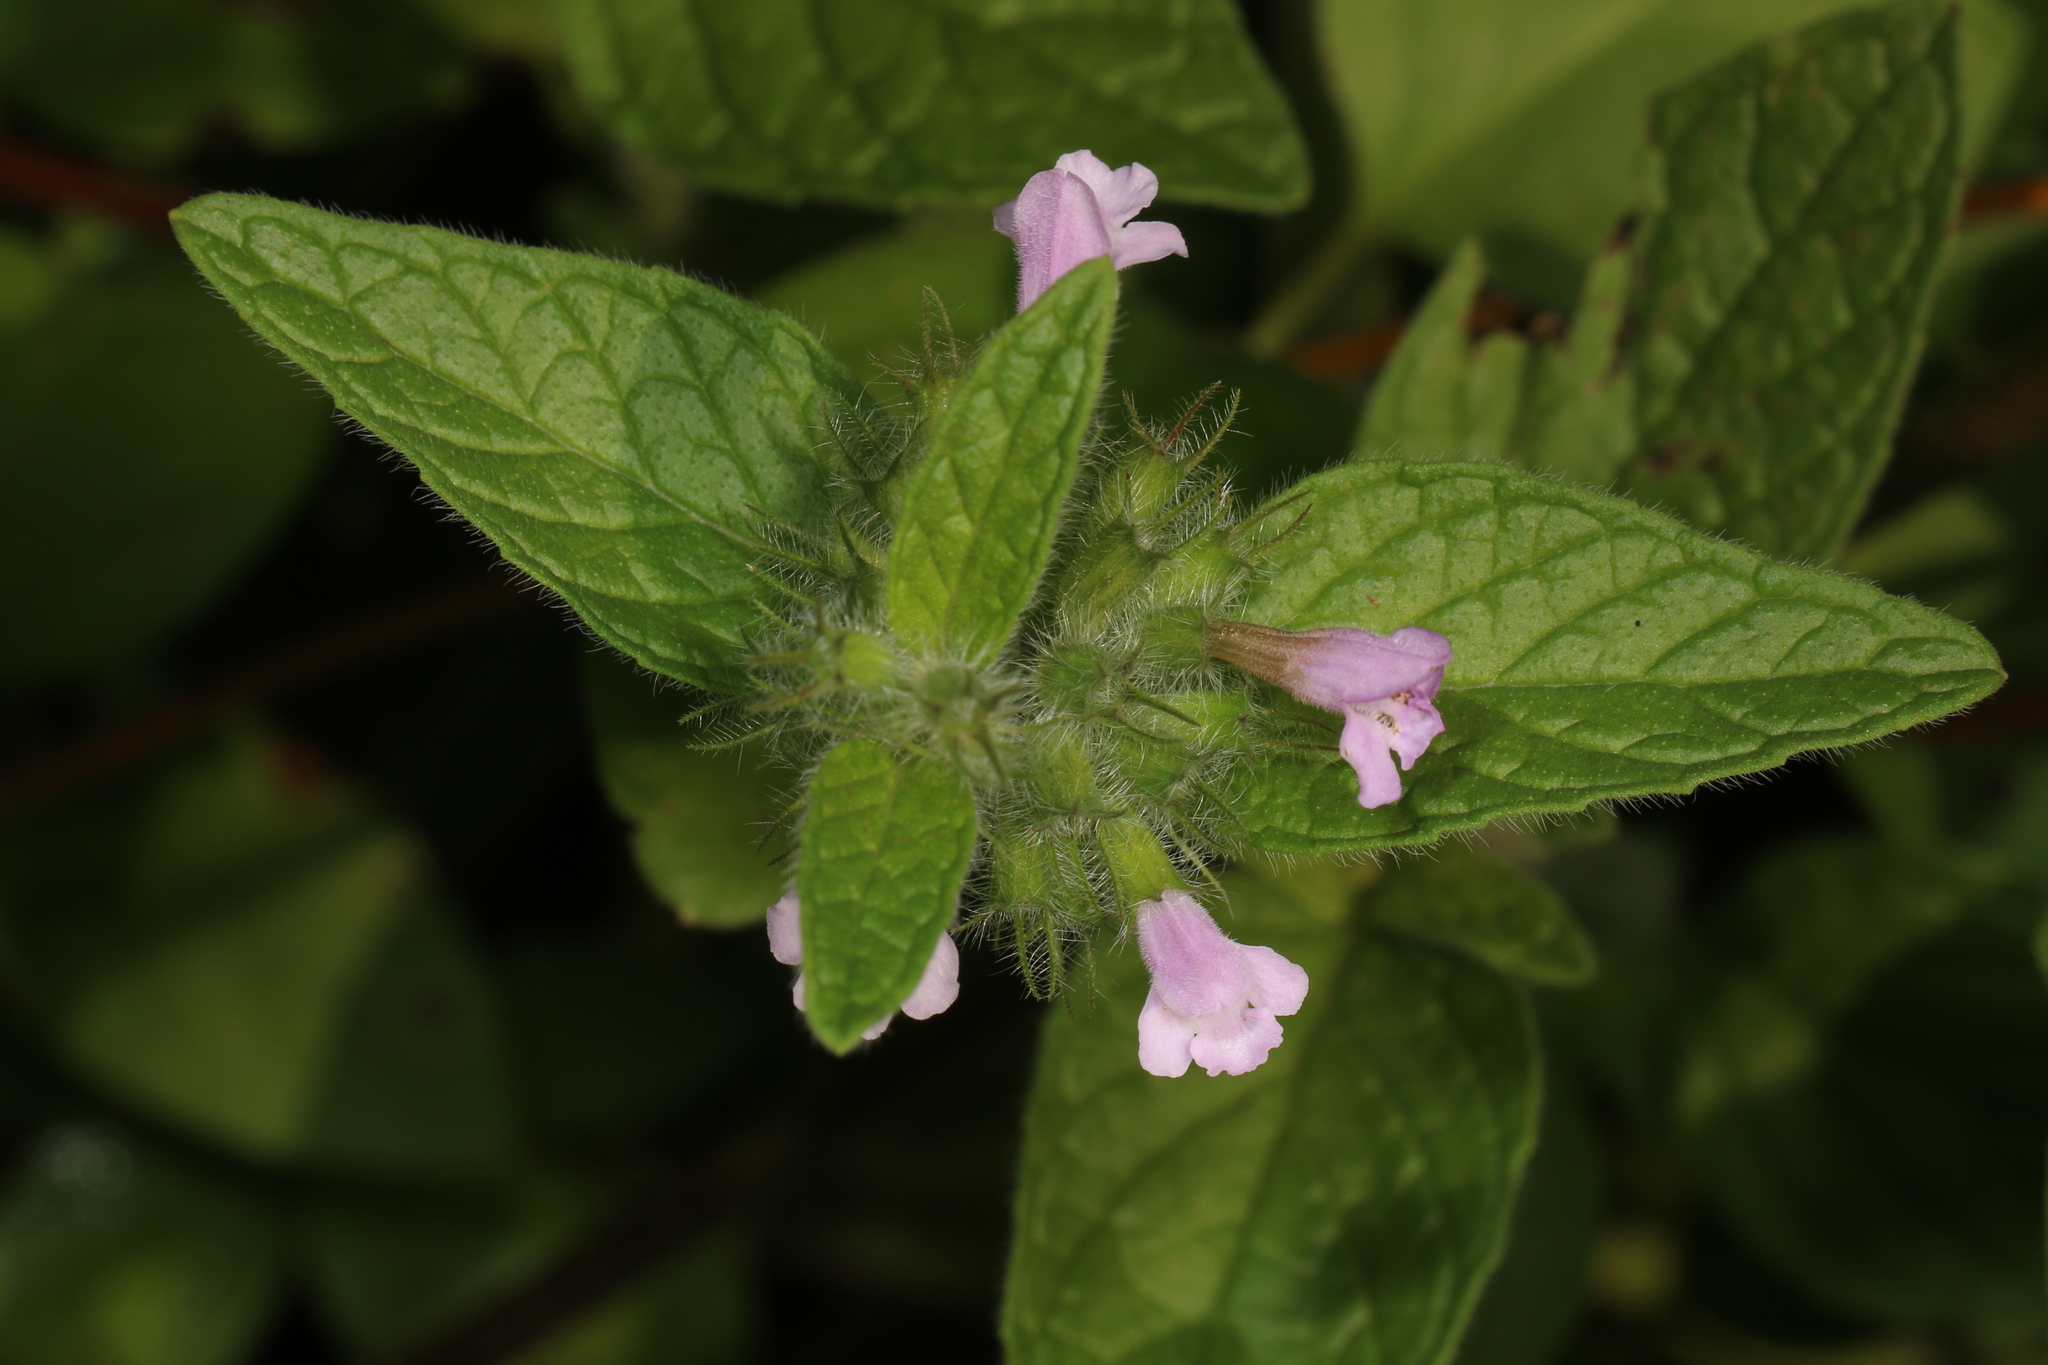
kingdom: Plantae
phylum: Tracheophyta
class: Magnoliopsida
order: Lamiales
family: Lamiaceae
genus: Clinopodium
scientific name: Clinopodium vulgare
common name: Wild basil
